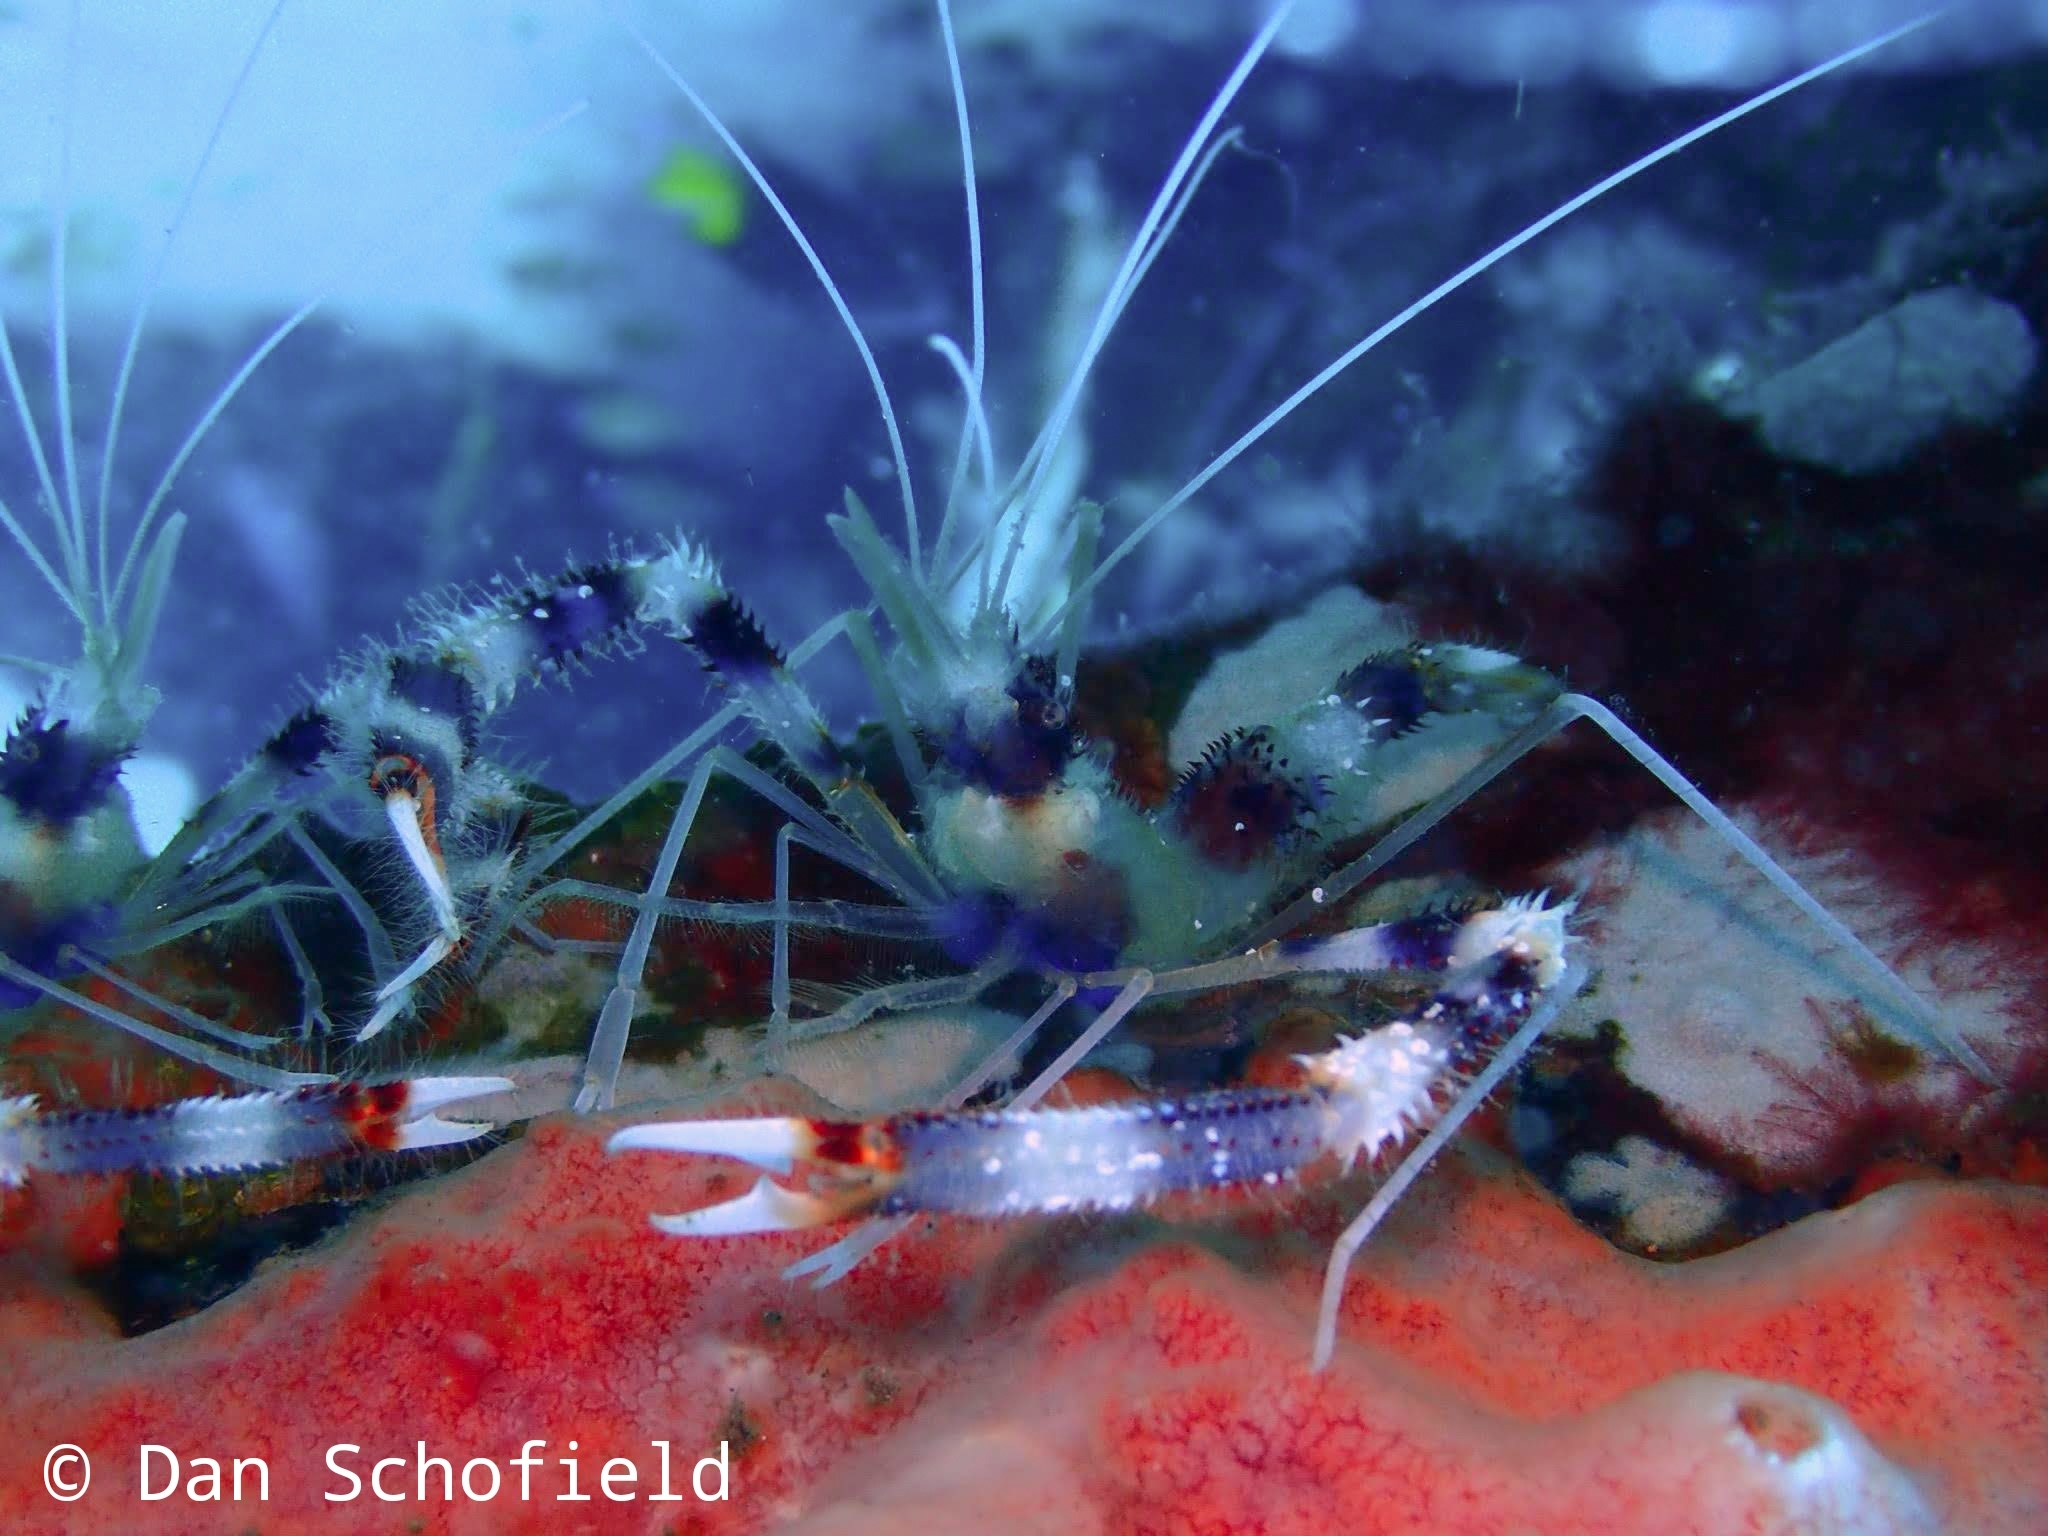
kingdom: Animalia
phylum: Arthropoda
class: Malacostraca
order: Decapoda
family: Stenopodidae
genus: Stenopus
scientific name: Stenopus hispidus
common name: Banded coral shrimp
